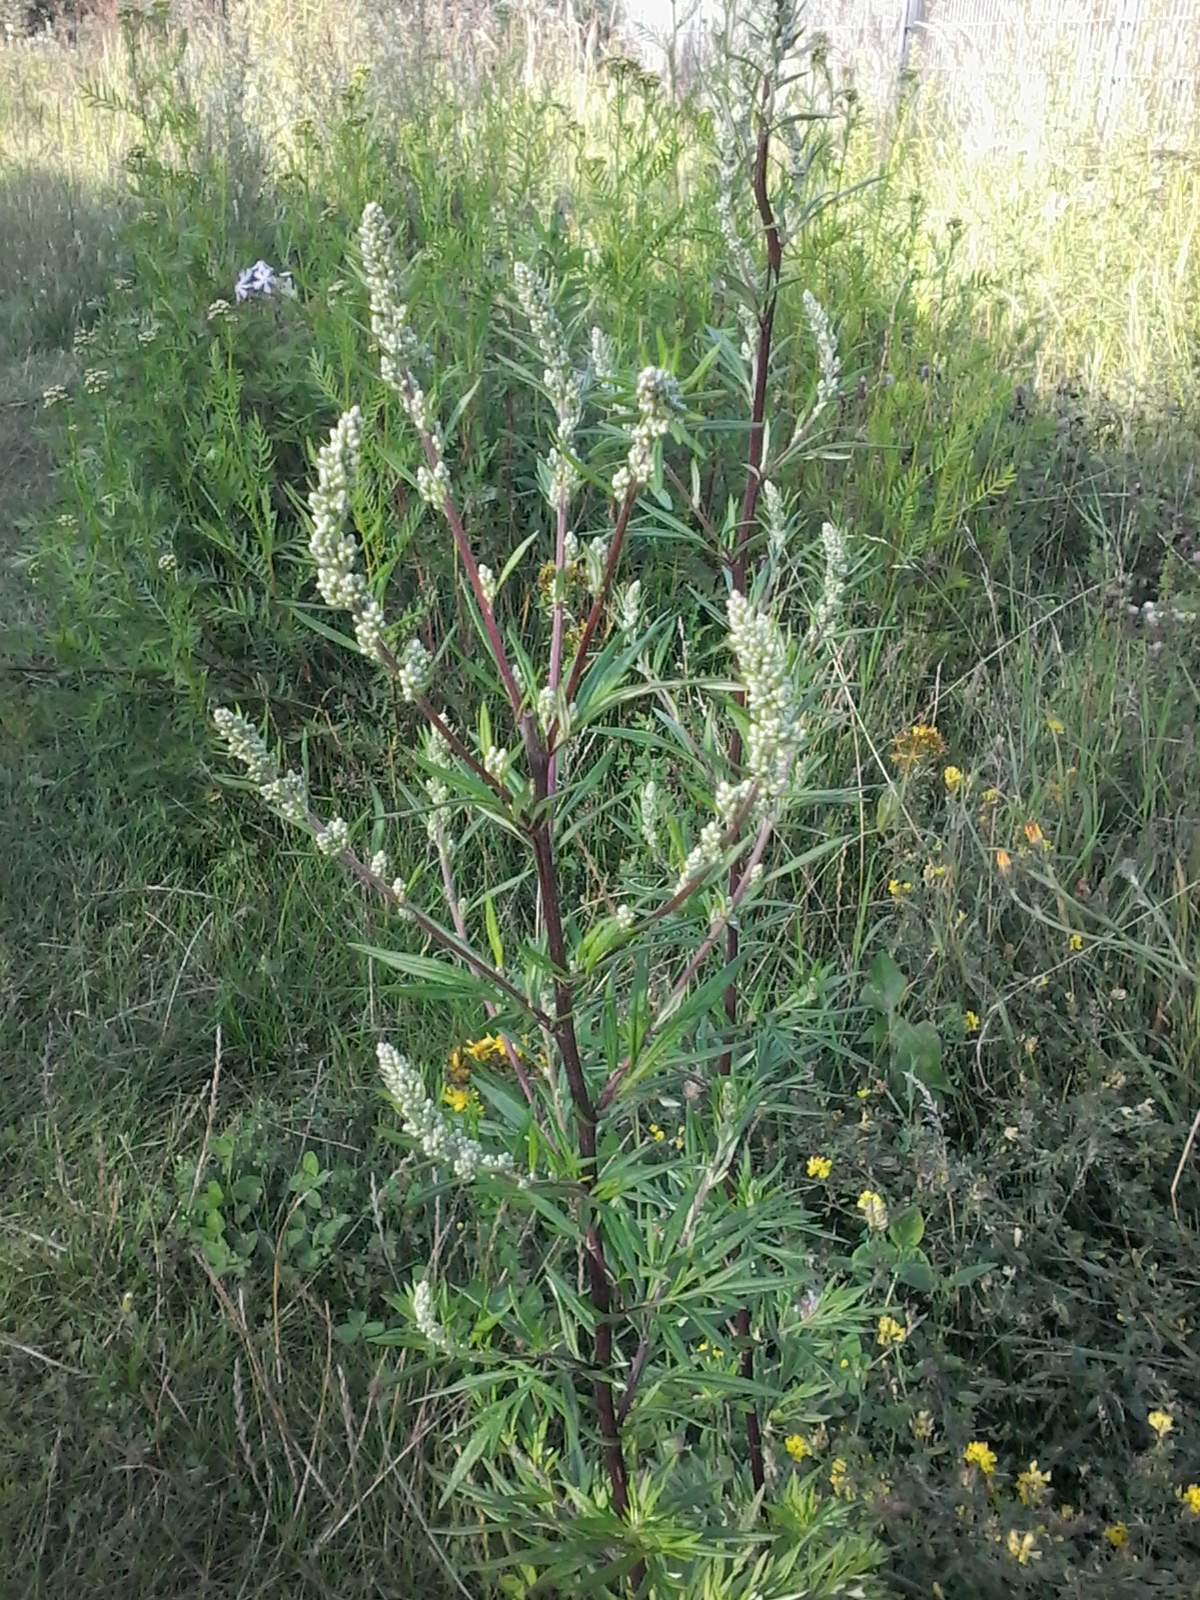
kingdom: Plantae
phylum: Tracheophyta
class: Magnoliopsida
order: Asterales
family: Asteraceae
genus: Artemisia
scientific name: Artemisia vulgaris
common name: Mugwort
